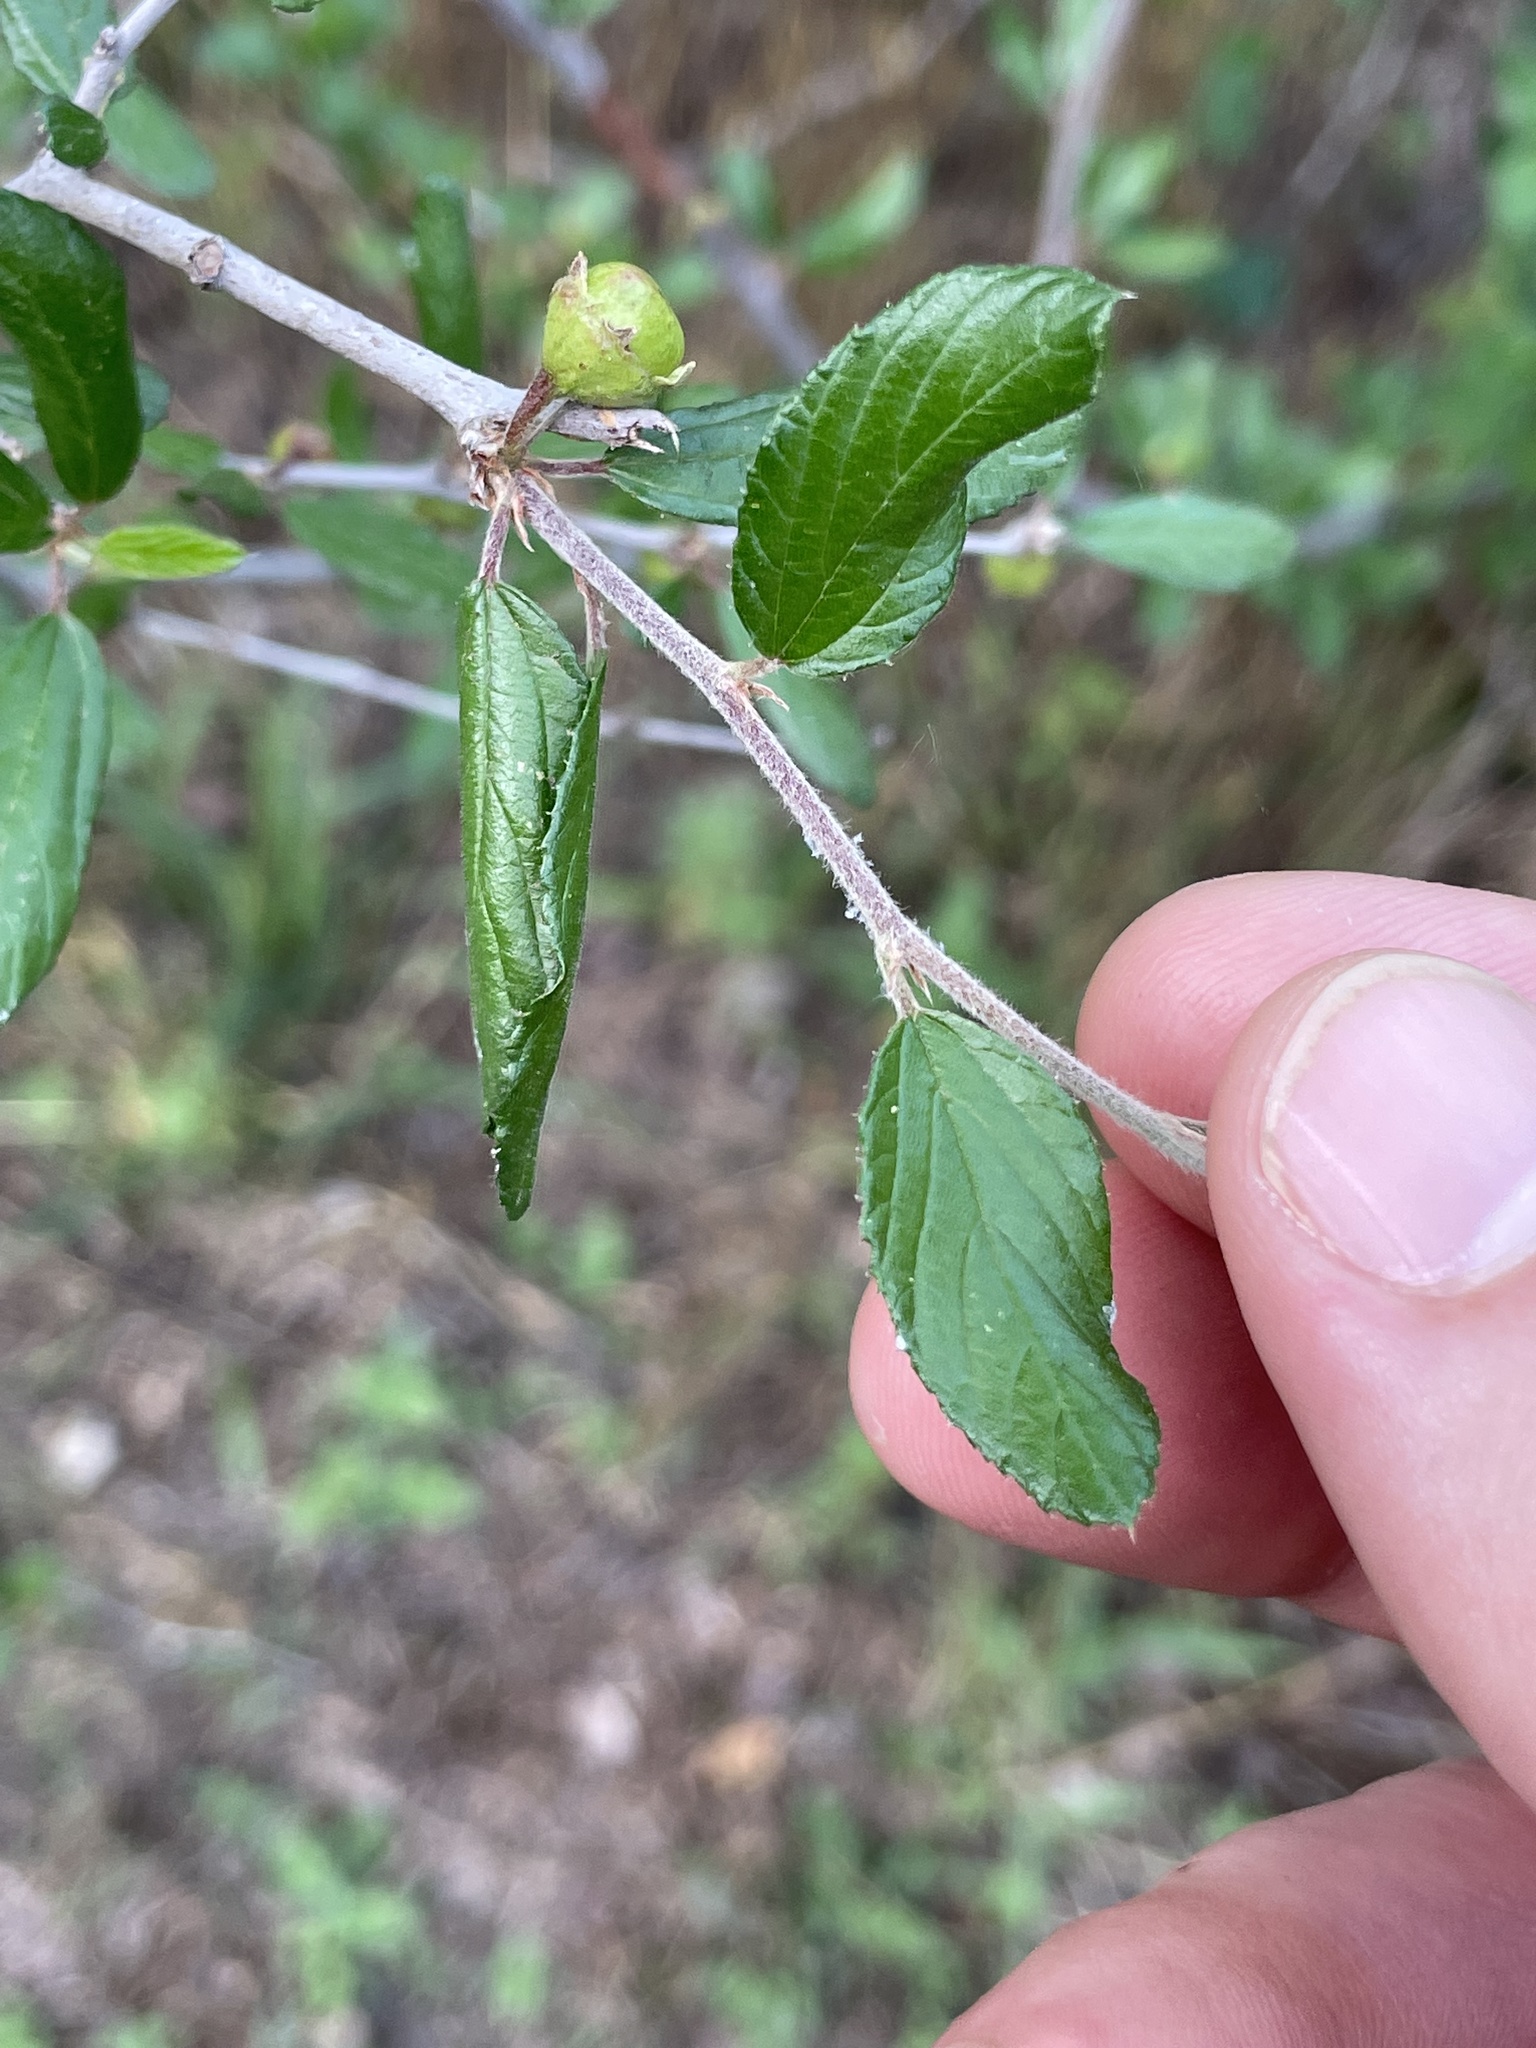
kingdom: Plantae
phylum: Tracheophyta
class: Magnoliopsida
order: Rosales
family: Rhamnaceae
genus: Colubrina
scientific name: Colubrina texensis
